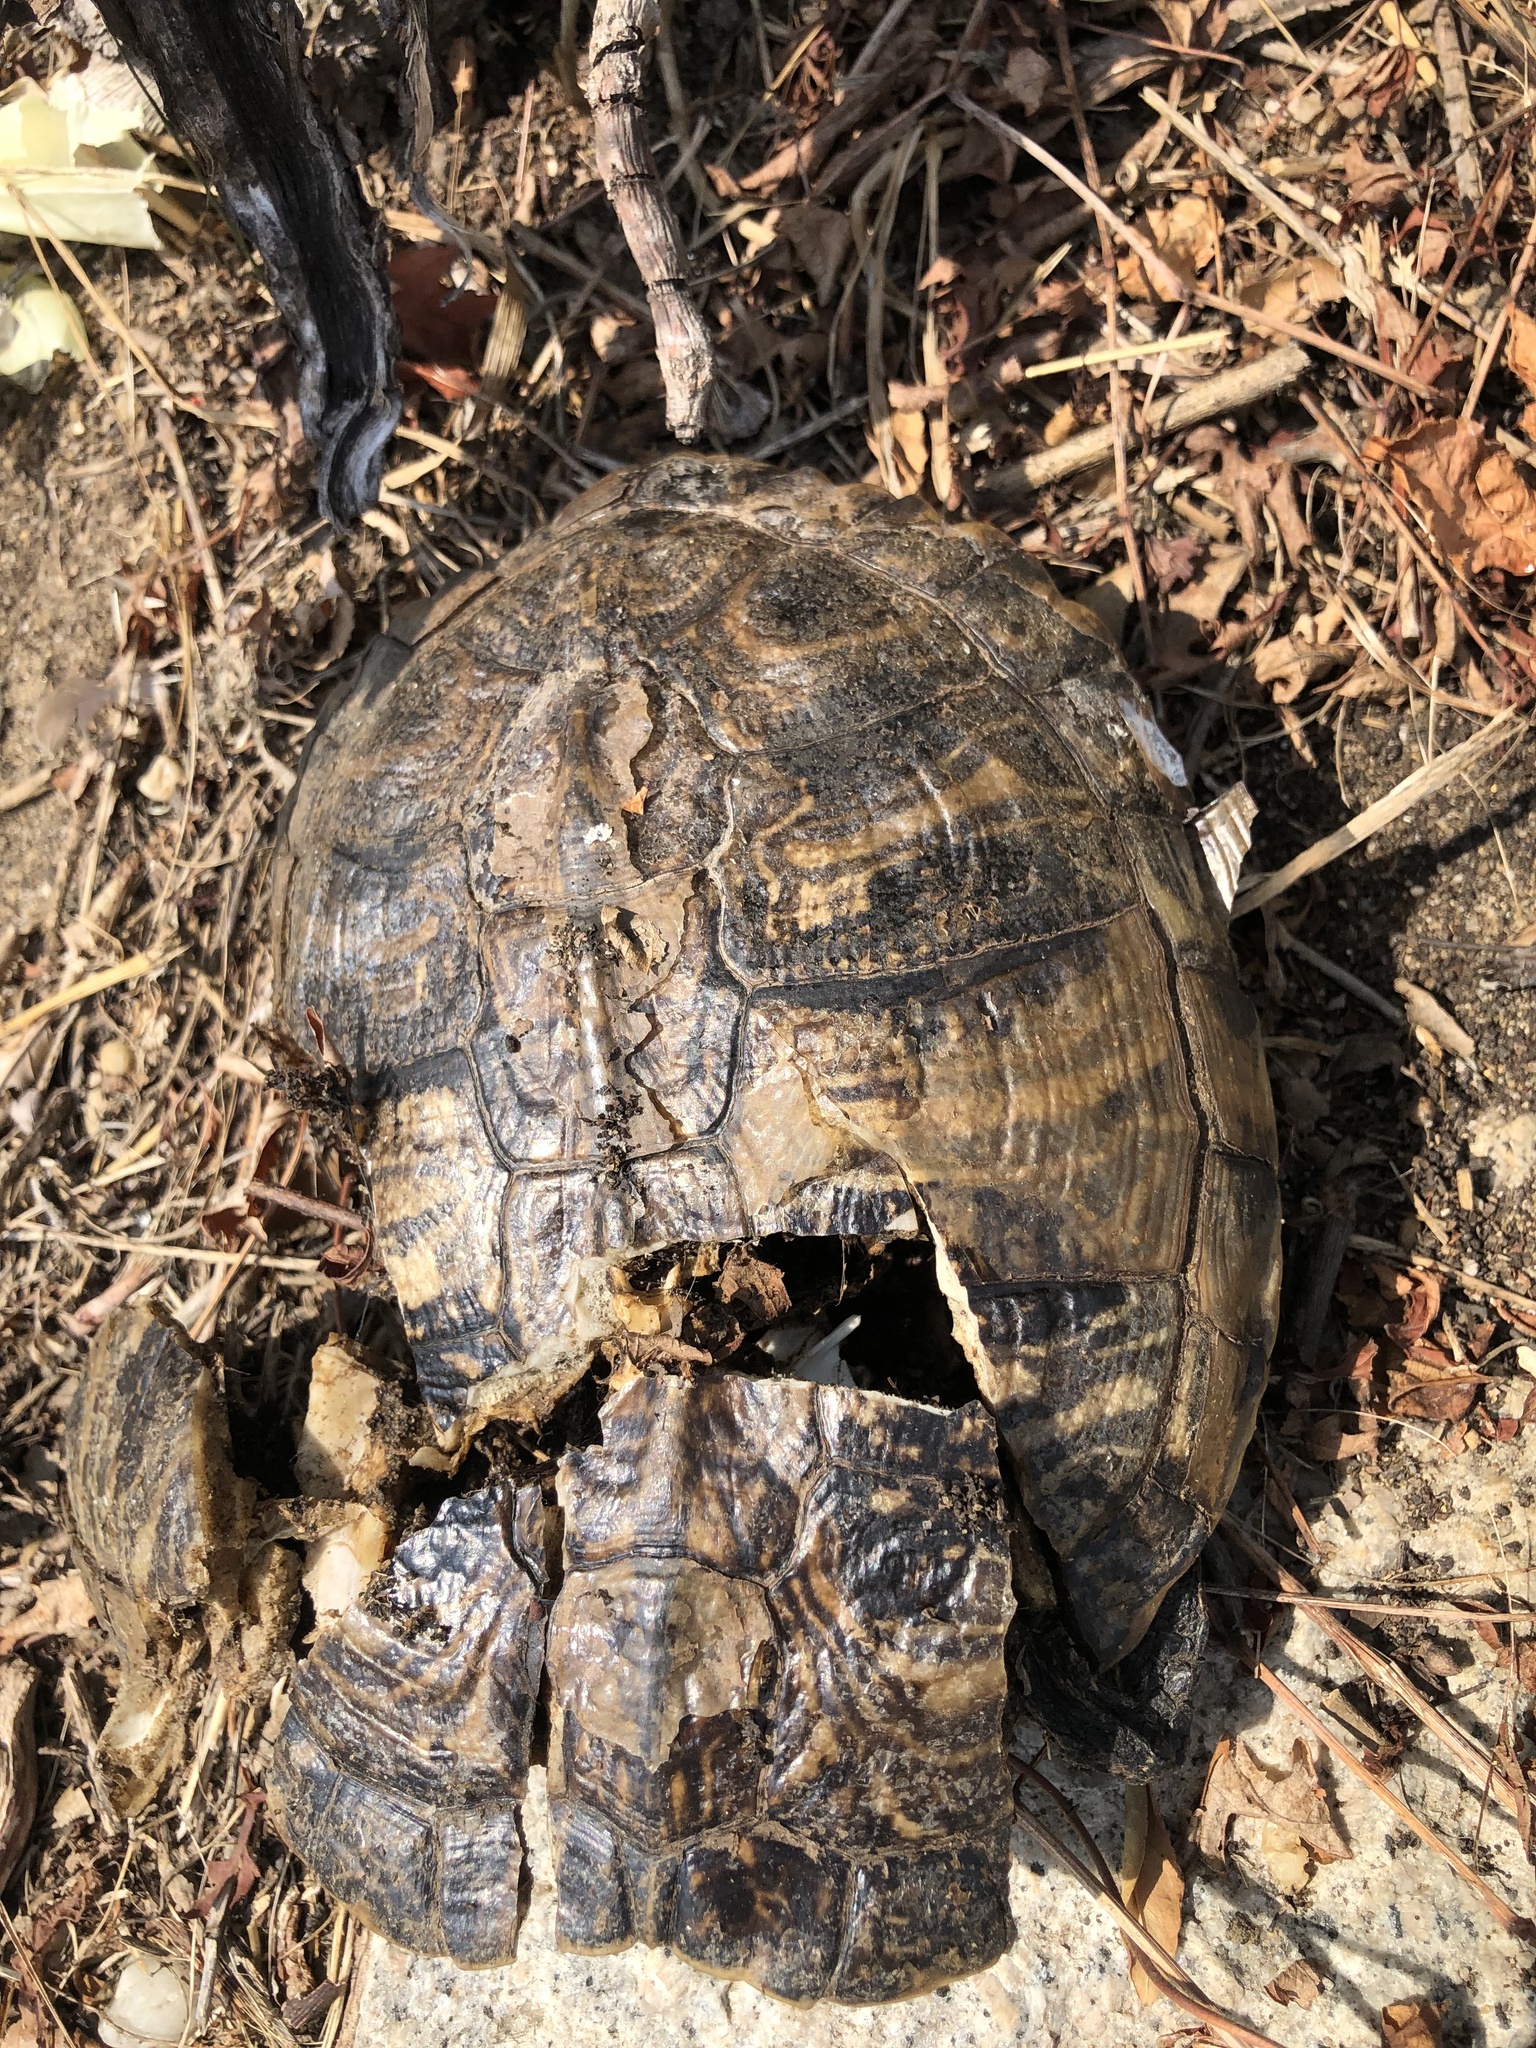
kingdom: Animalia
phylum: Chordata
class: Testudines
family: Emydidae
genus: Trachemys
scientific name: Trachemys scripta
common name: Slider
